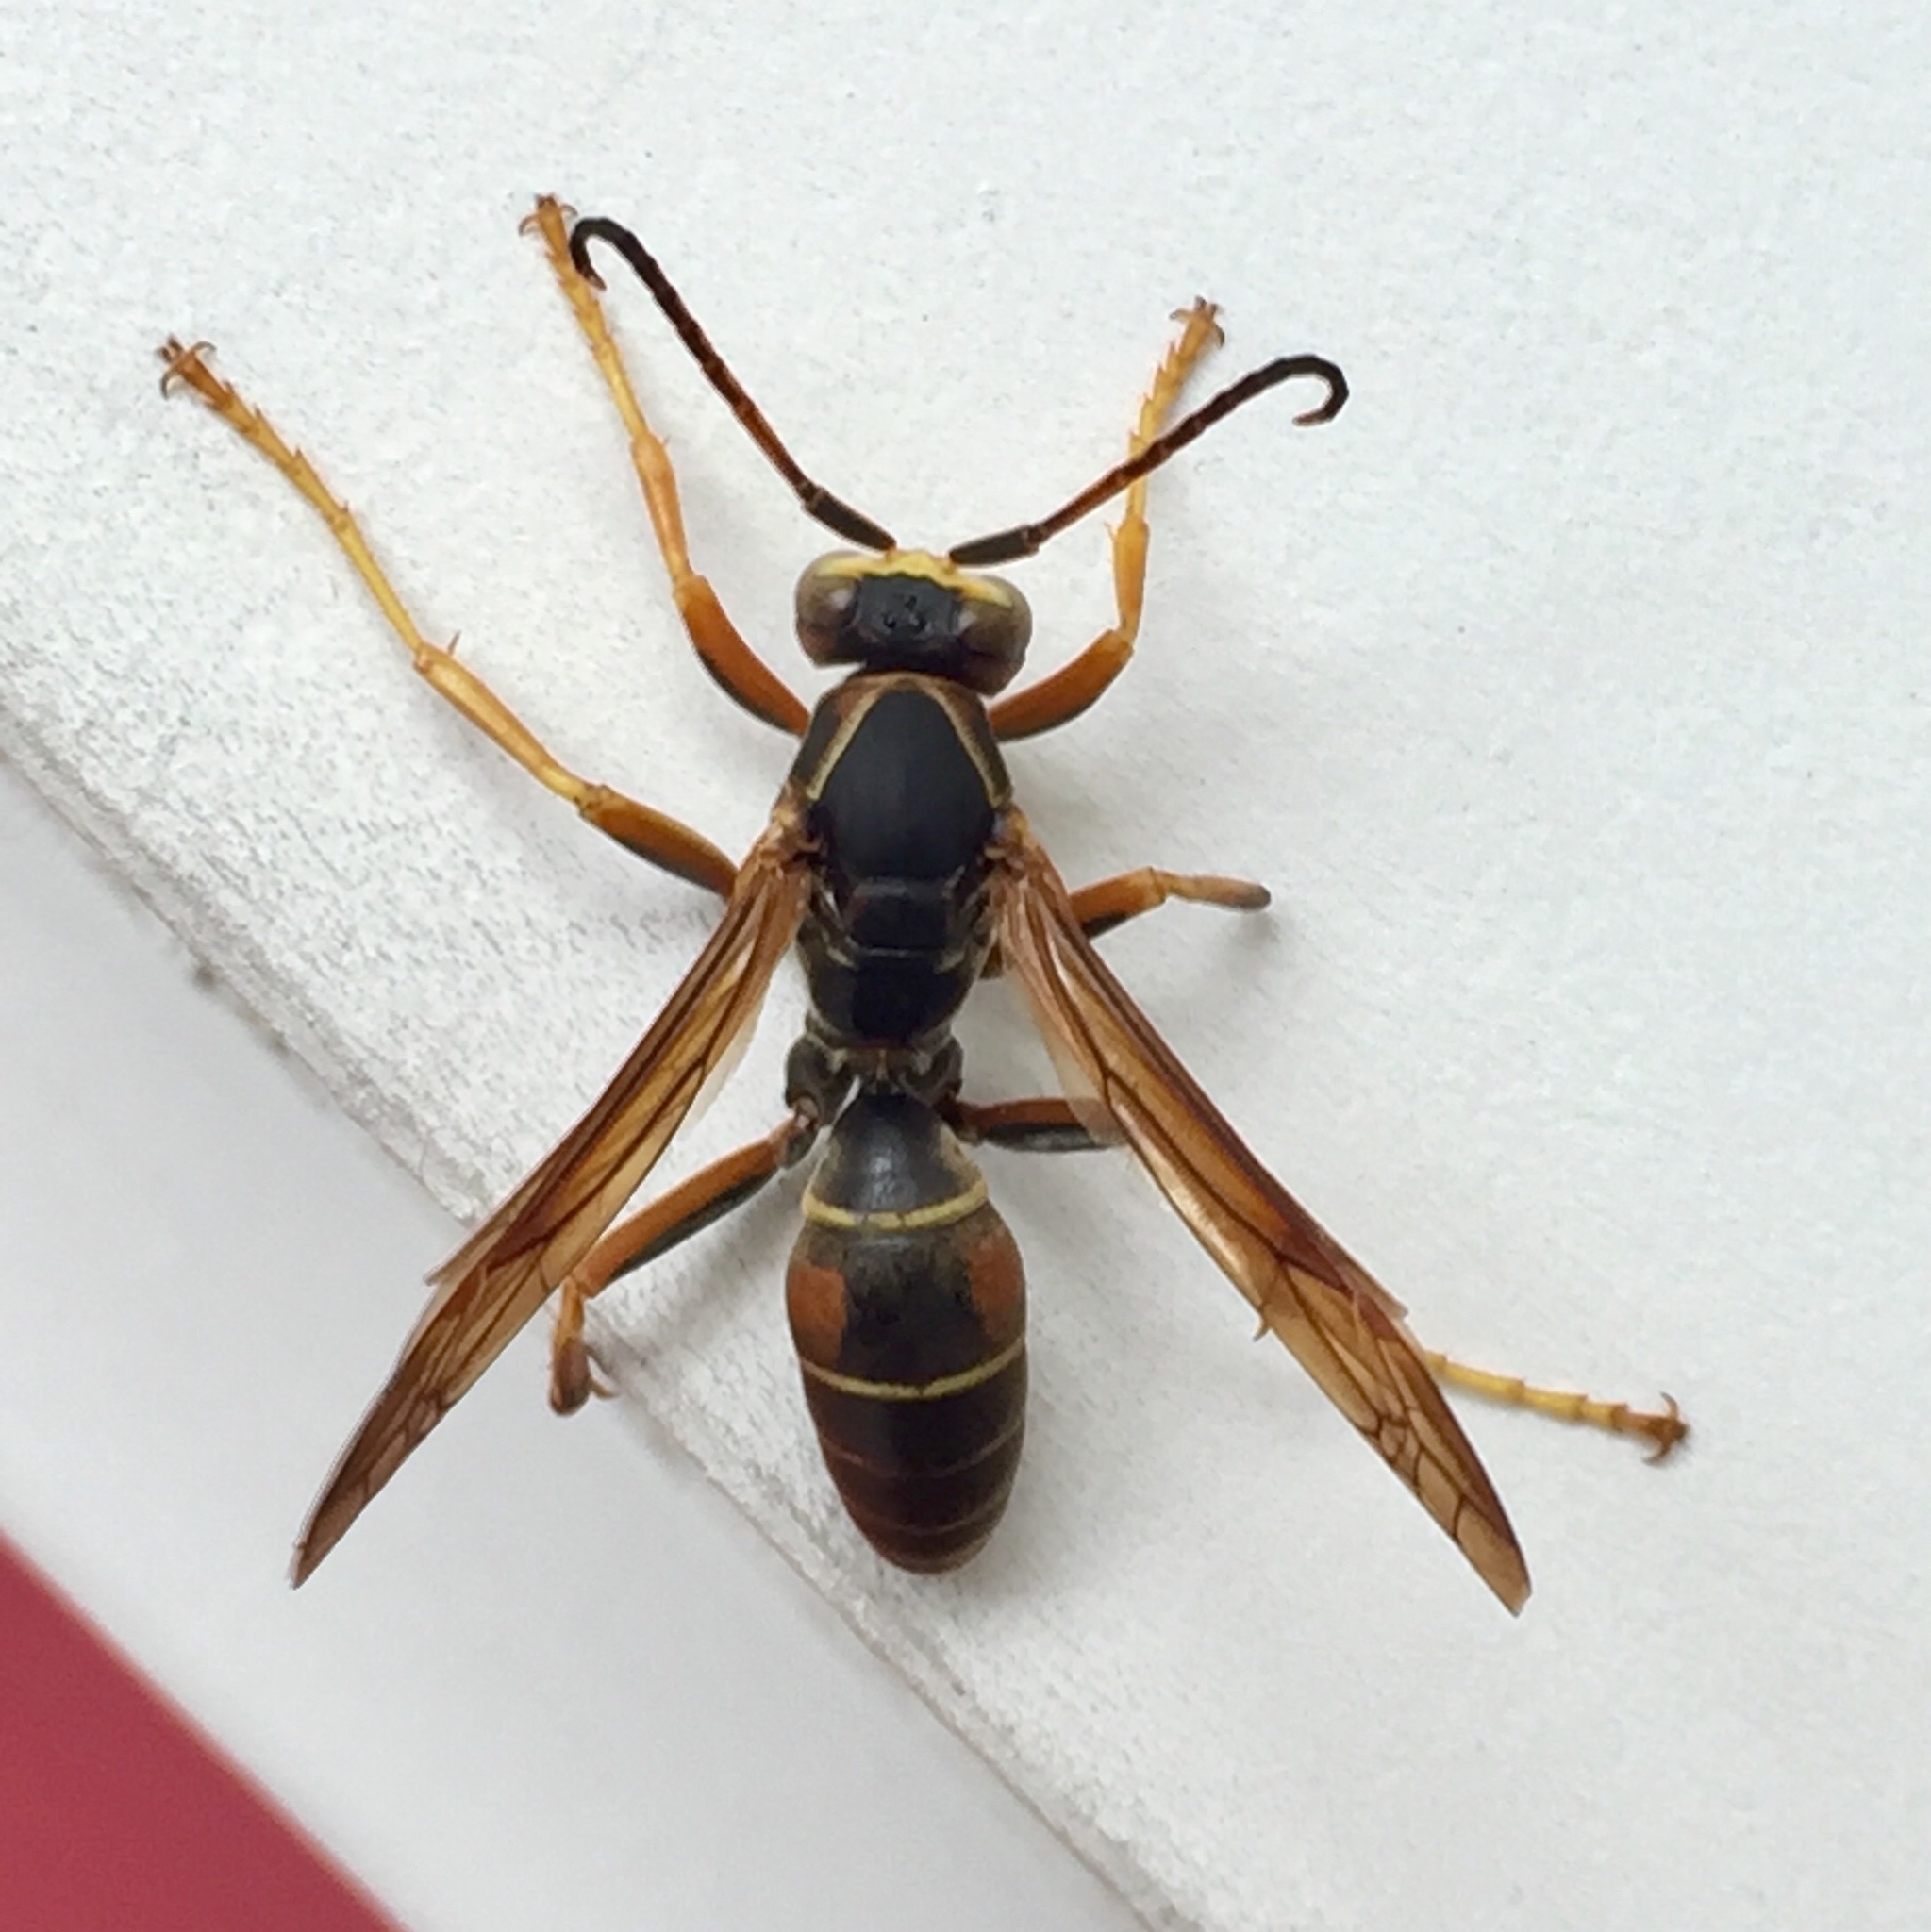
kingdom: Animalia
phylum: Arthropoda
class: Insecta
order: Hymenoptera
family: Eumenidae
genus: Polistes
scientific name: Polistes fuscatus
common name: Dark paper wasp
